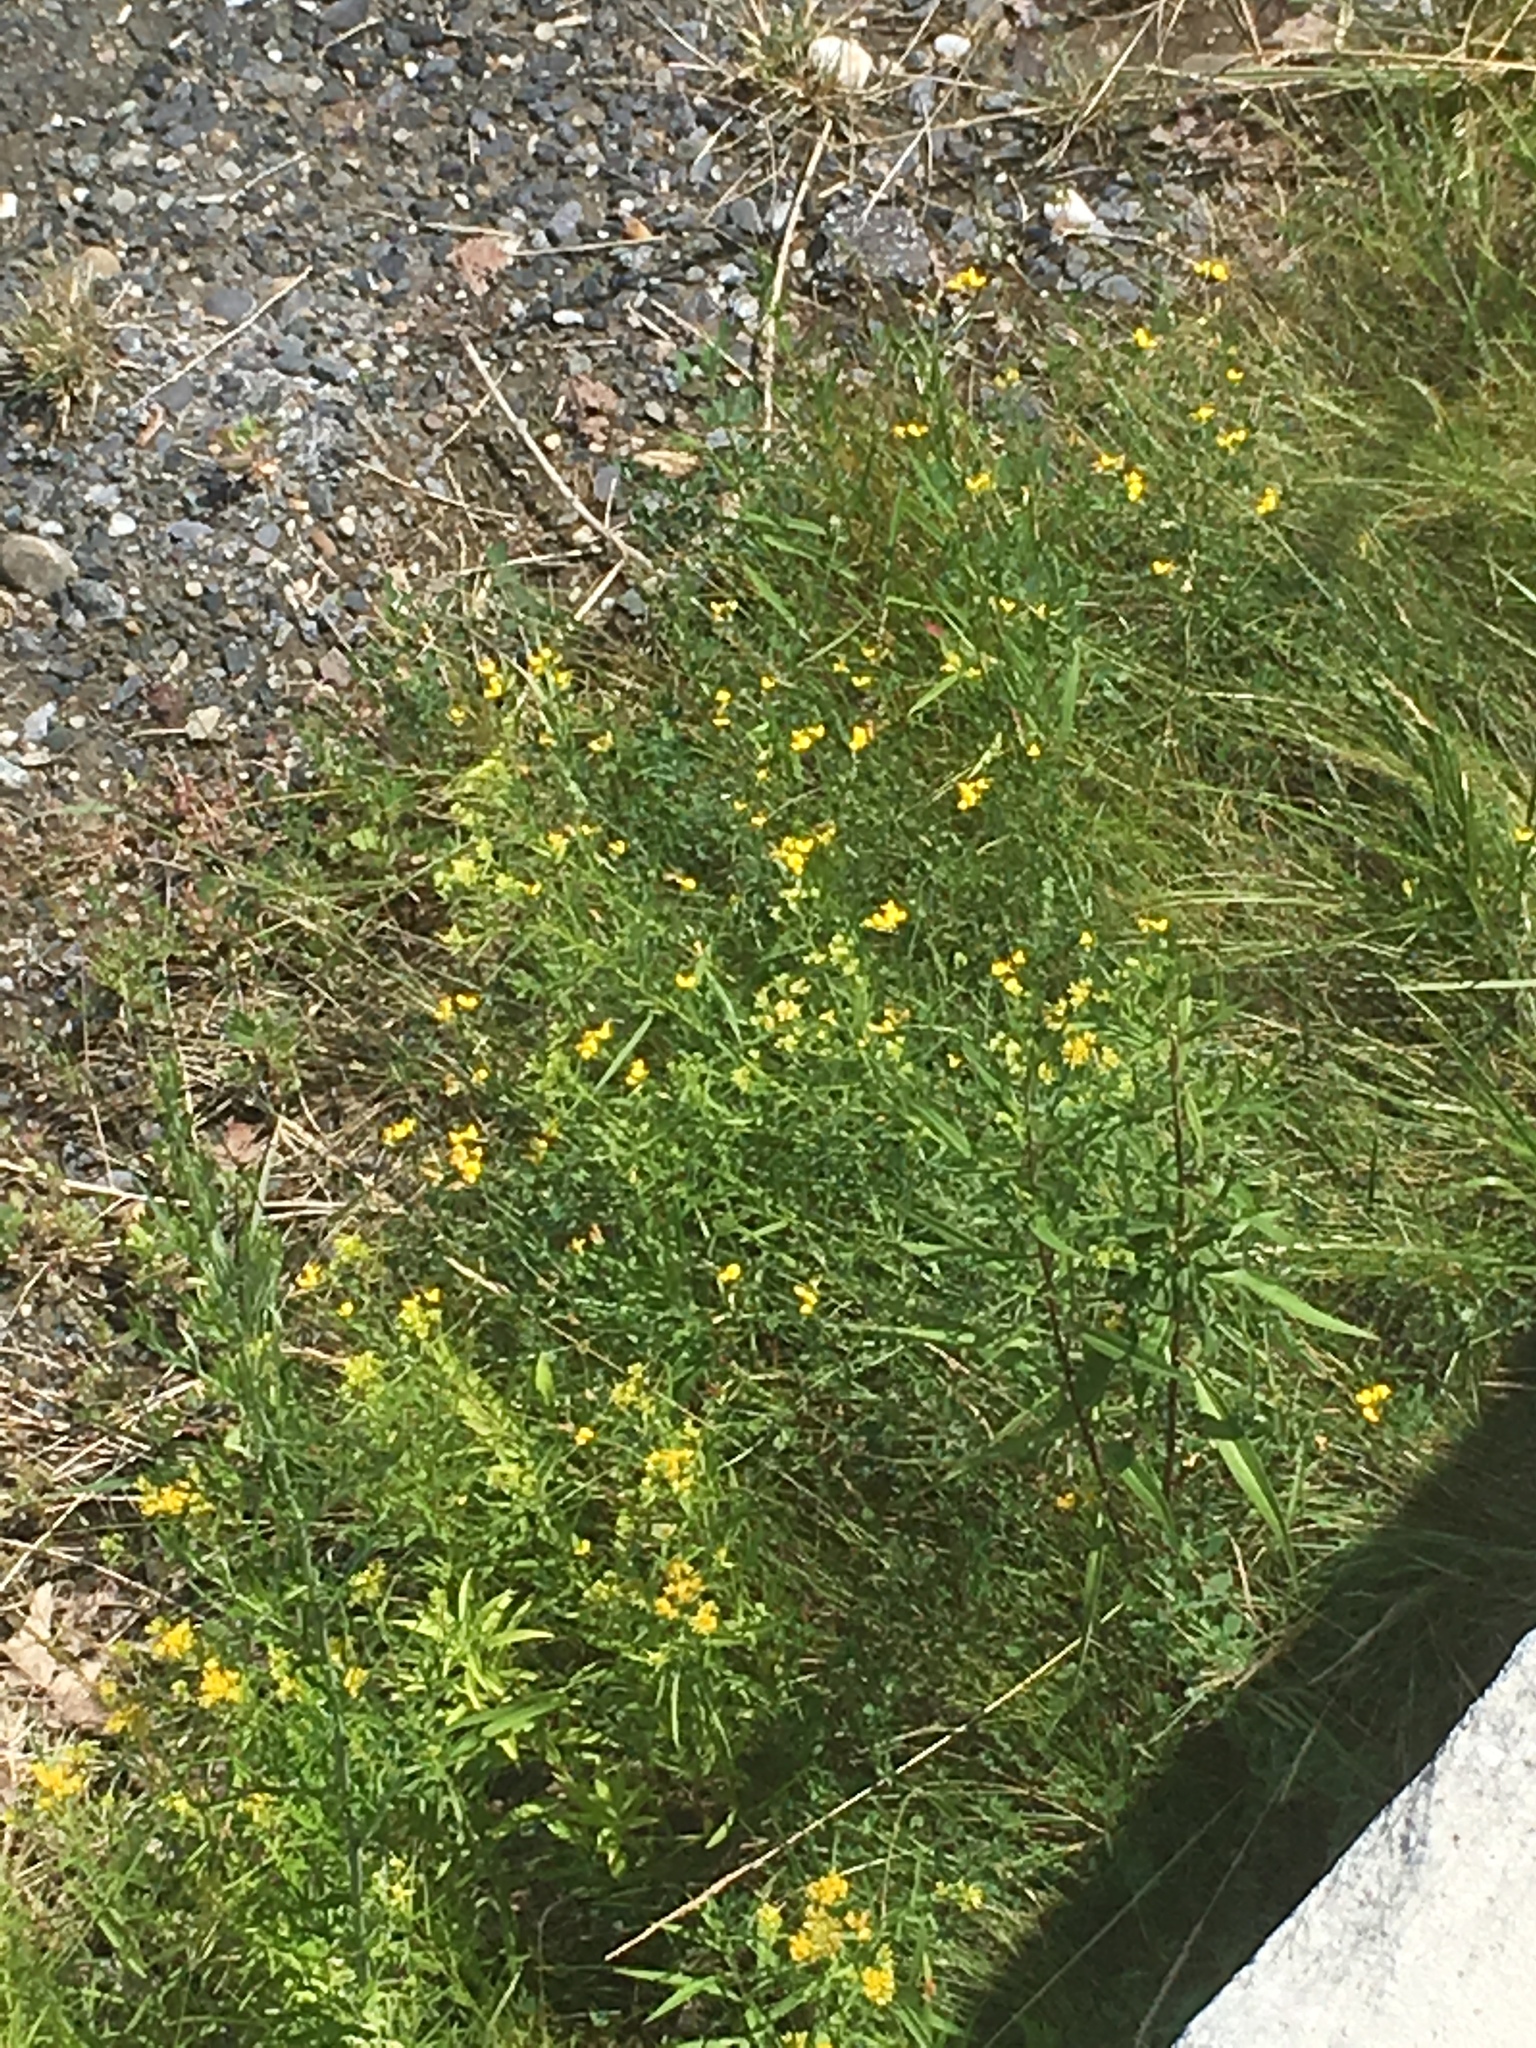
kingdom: Plantae
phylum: Tracheophyta
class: Magnoliopsida
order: Fabales
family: Fabaceae
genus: Lotus
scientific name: Lotus corniculatus
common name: Common bird's-foot-trefoil
